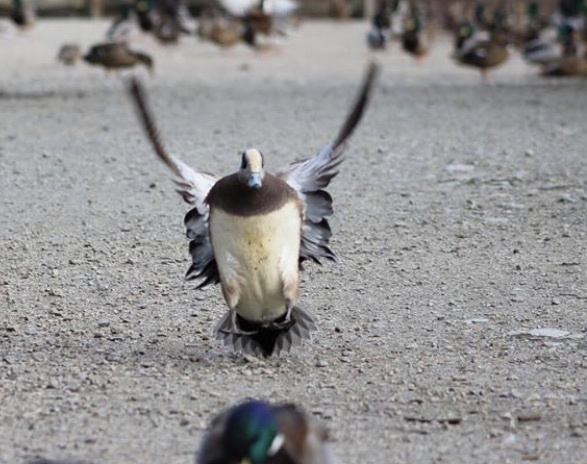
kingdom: Animalia
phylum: Chordata
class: Aves
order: Anseriformes
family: Anatidae
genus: Mareca
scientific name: Mareca americana
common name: American wigeon
